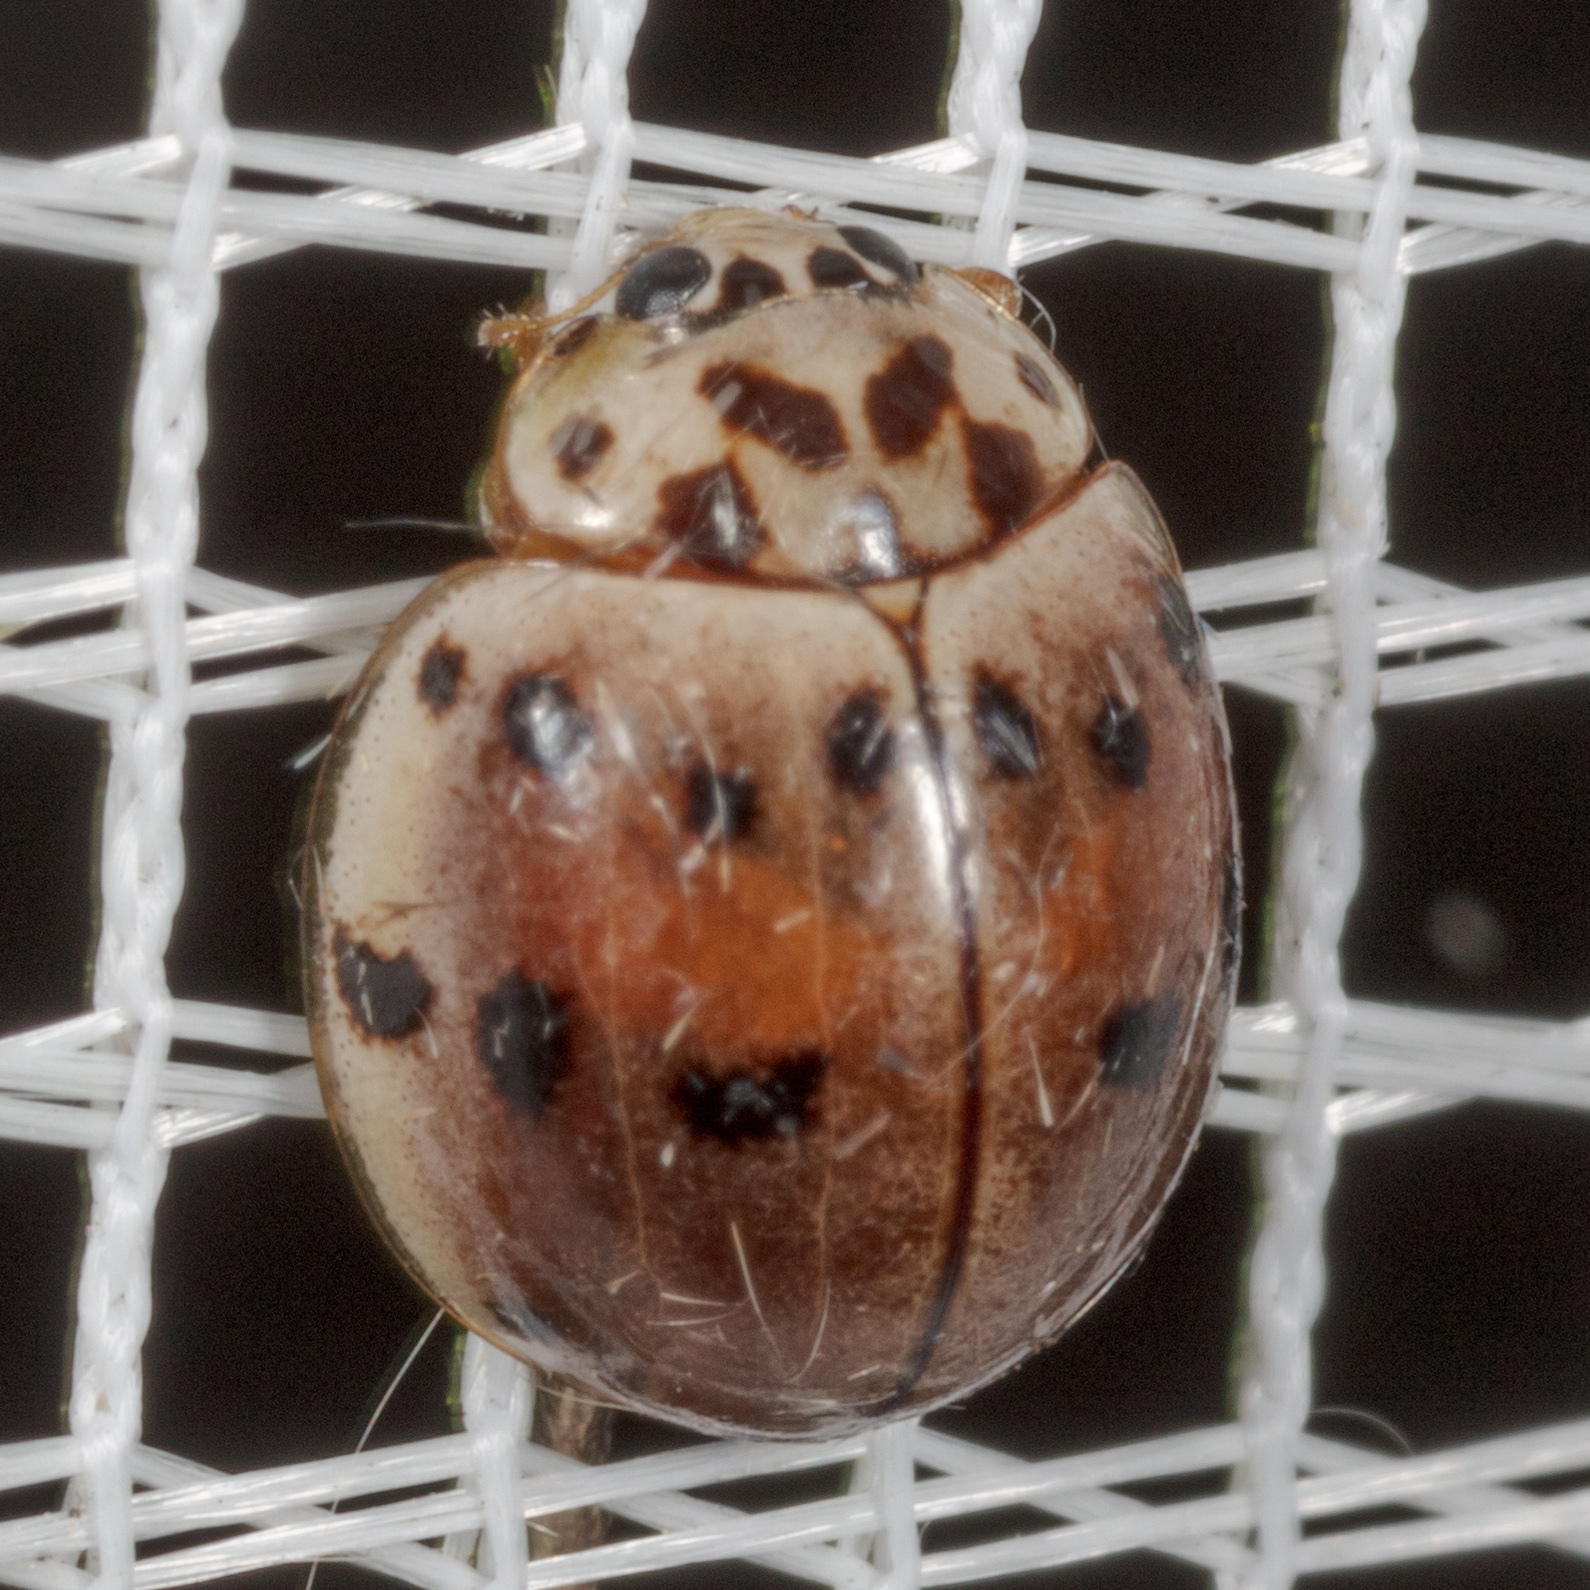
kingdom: Animalia
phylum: Arthropoda
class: Insecta
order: Coleoptera
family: Coccinellidae
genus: Olla
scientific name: Olla v-nigrum
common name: Ashy gray lady beetle
